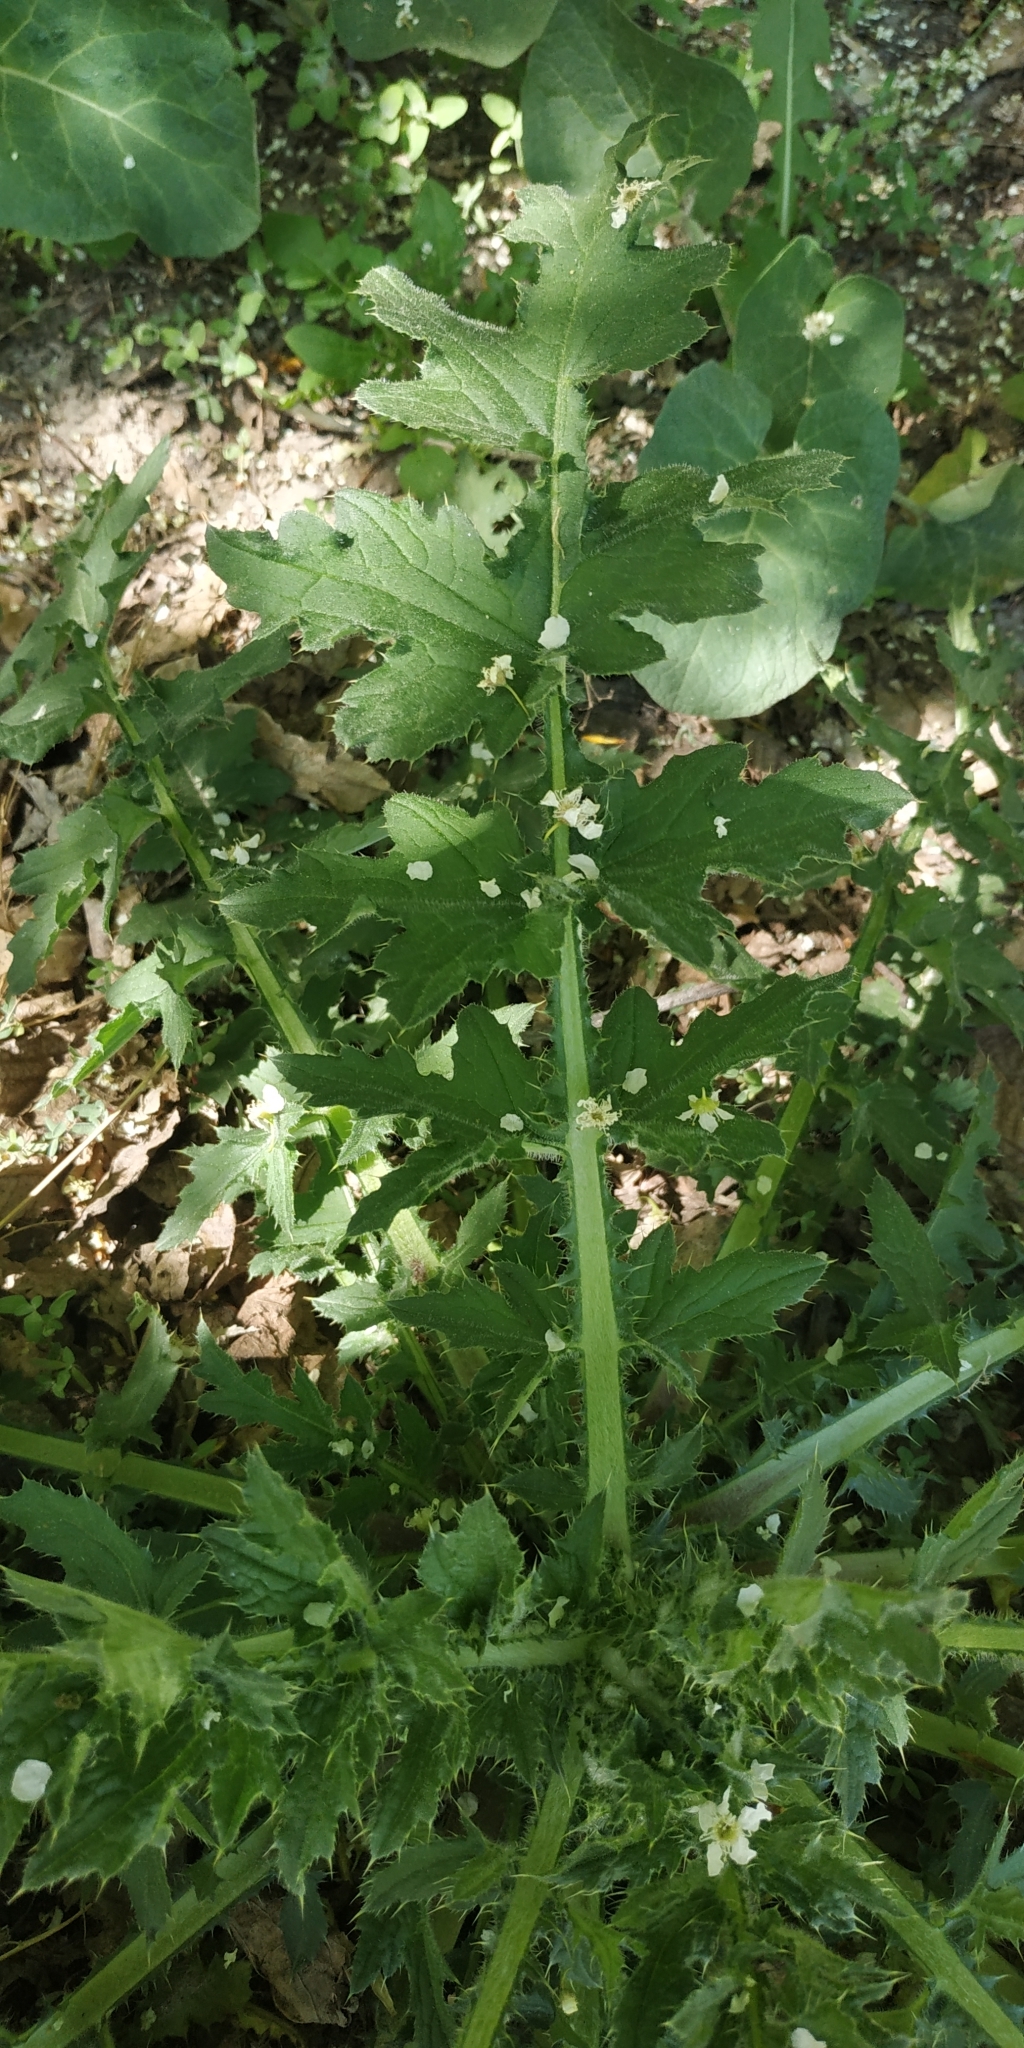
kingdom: Plantae
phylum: Tracheophyta
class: Magnoliopsida
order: Asterales
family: Asteraceae
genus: Carduus
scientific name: Carduus crispus
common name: Welted thistle
